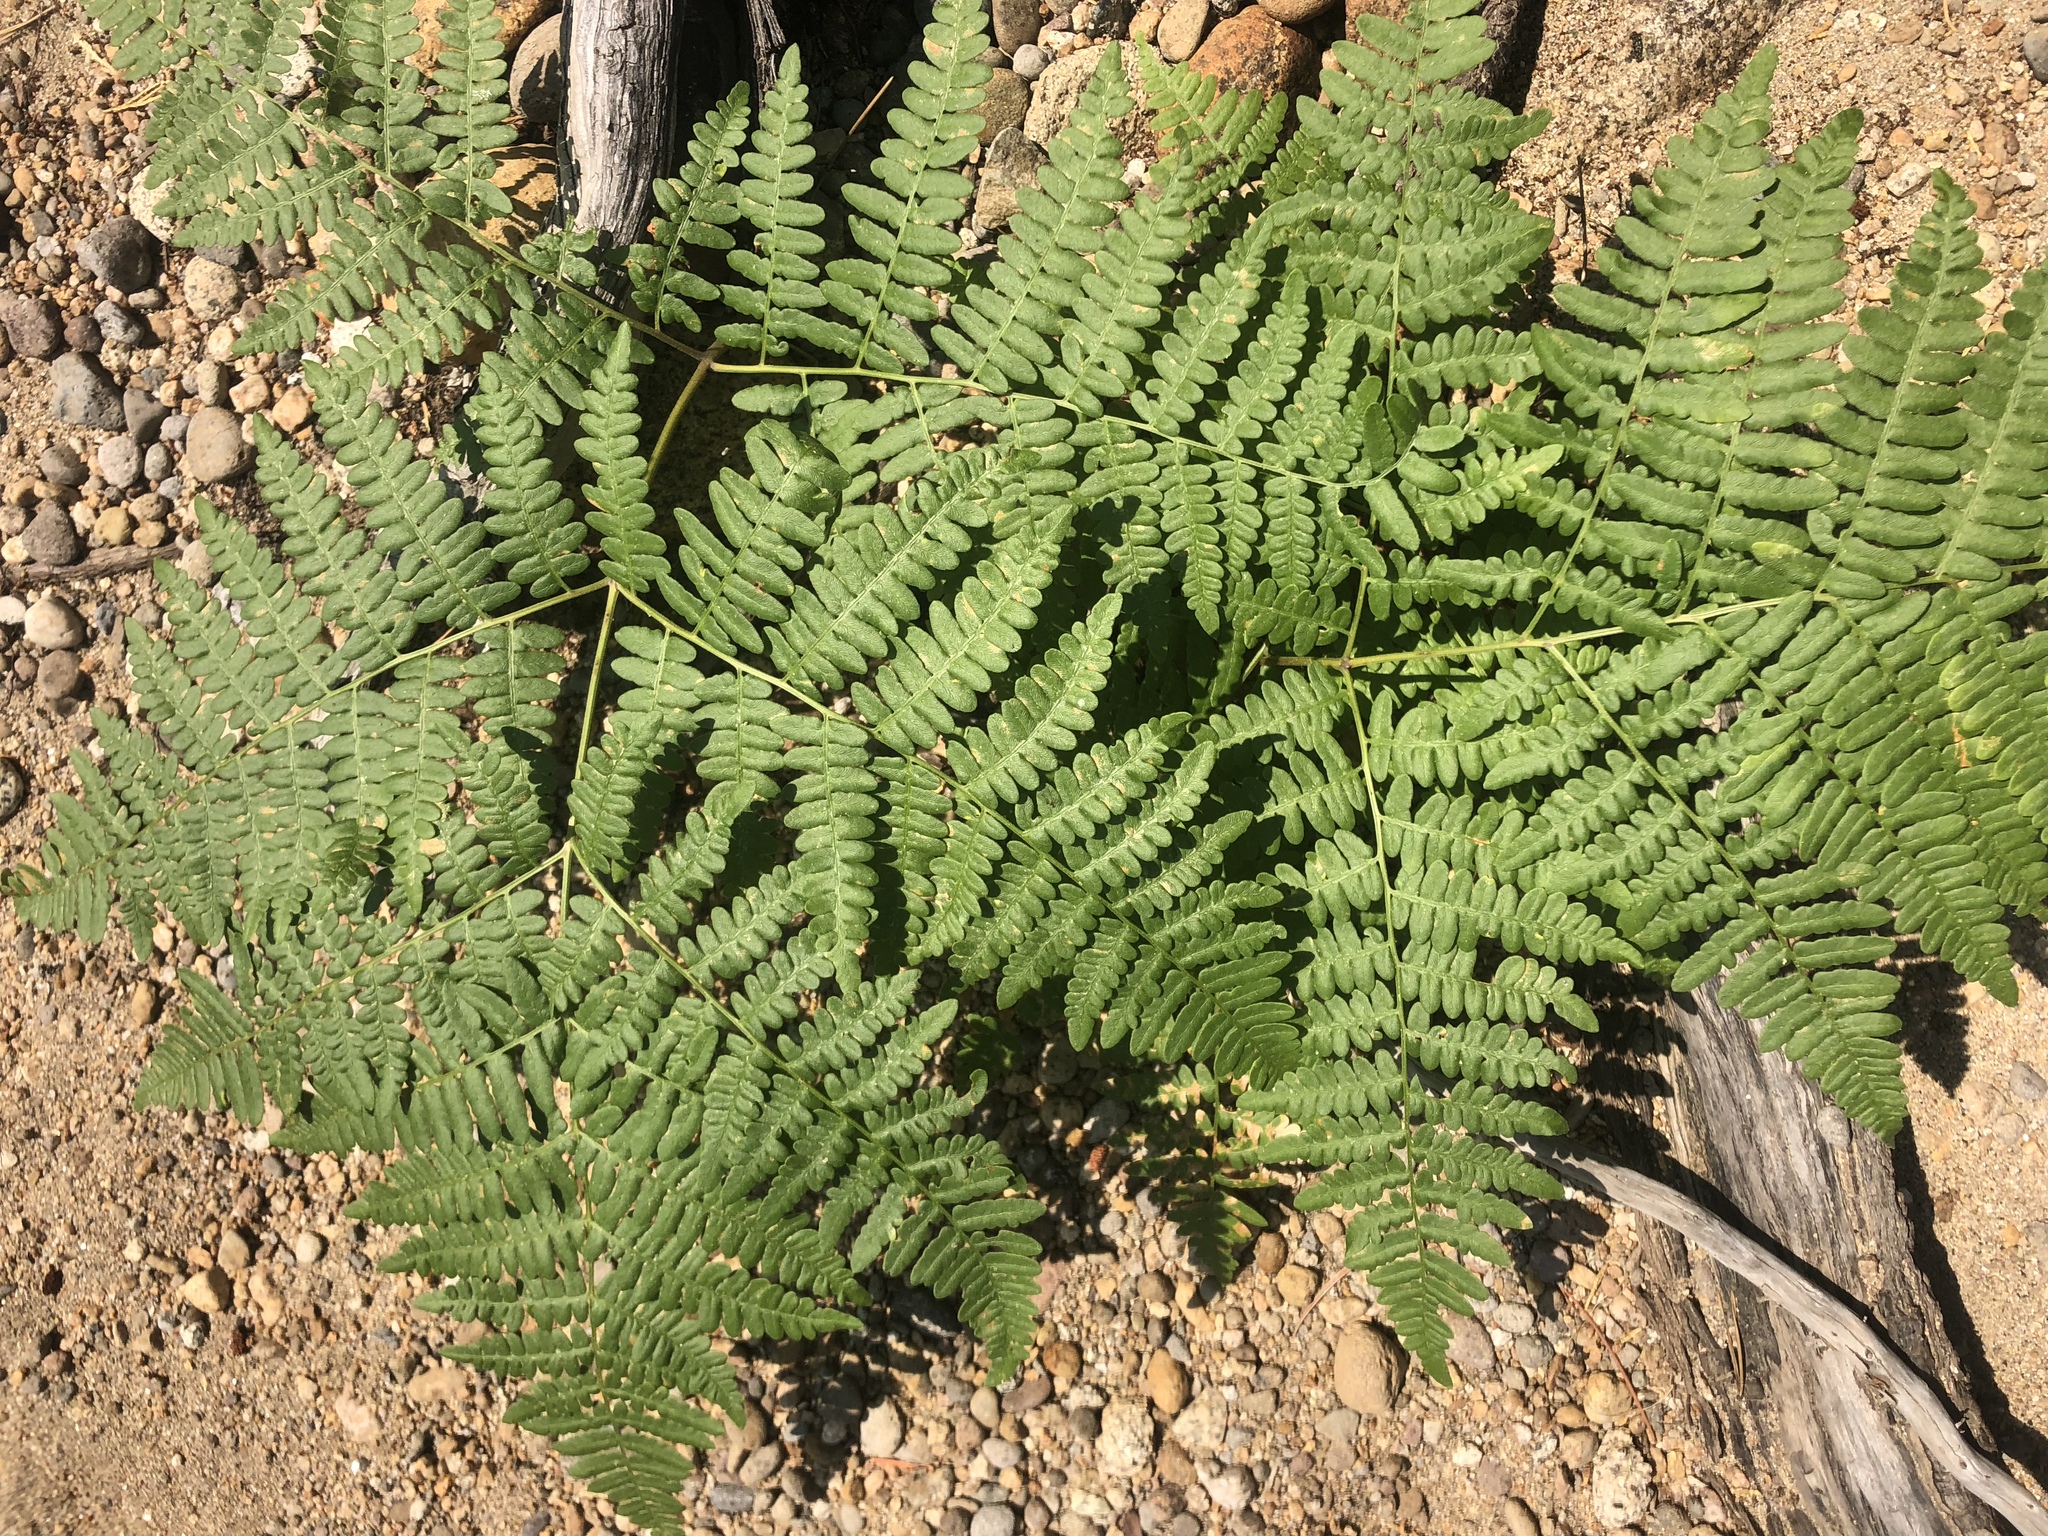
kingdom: Plantae
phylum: Tracheophyta
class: Polypodiopsida
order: Polypodiales
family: Dennstaedtiaceae
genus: Pteridium
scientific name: Pteridium aquilinum
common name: Bracken
